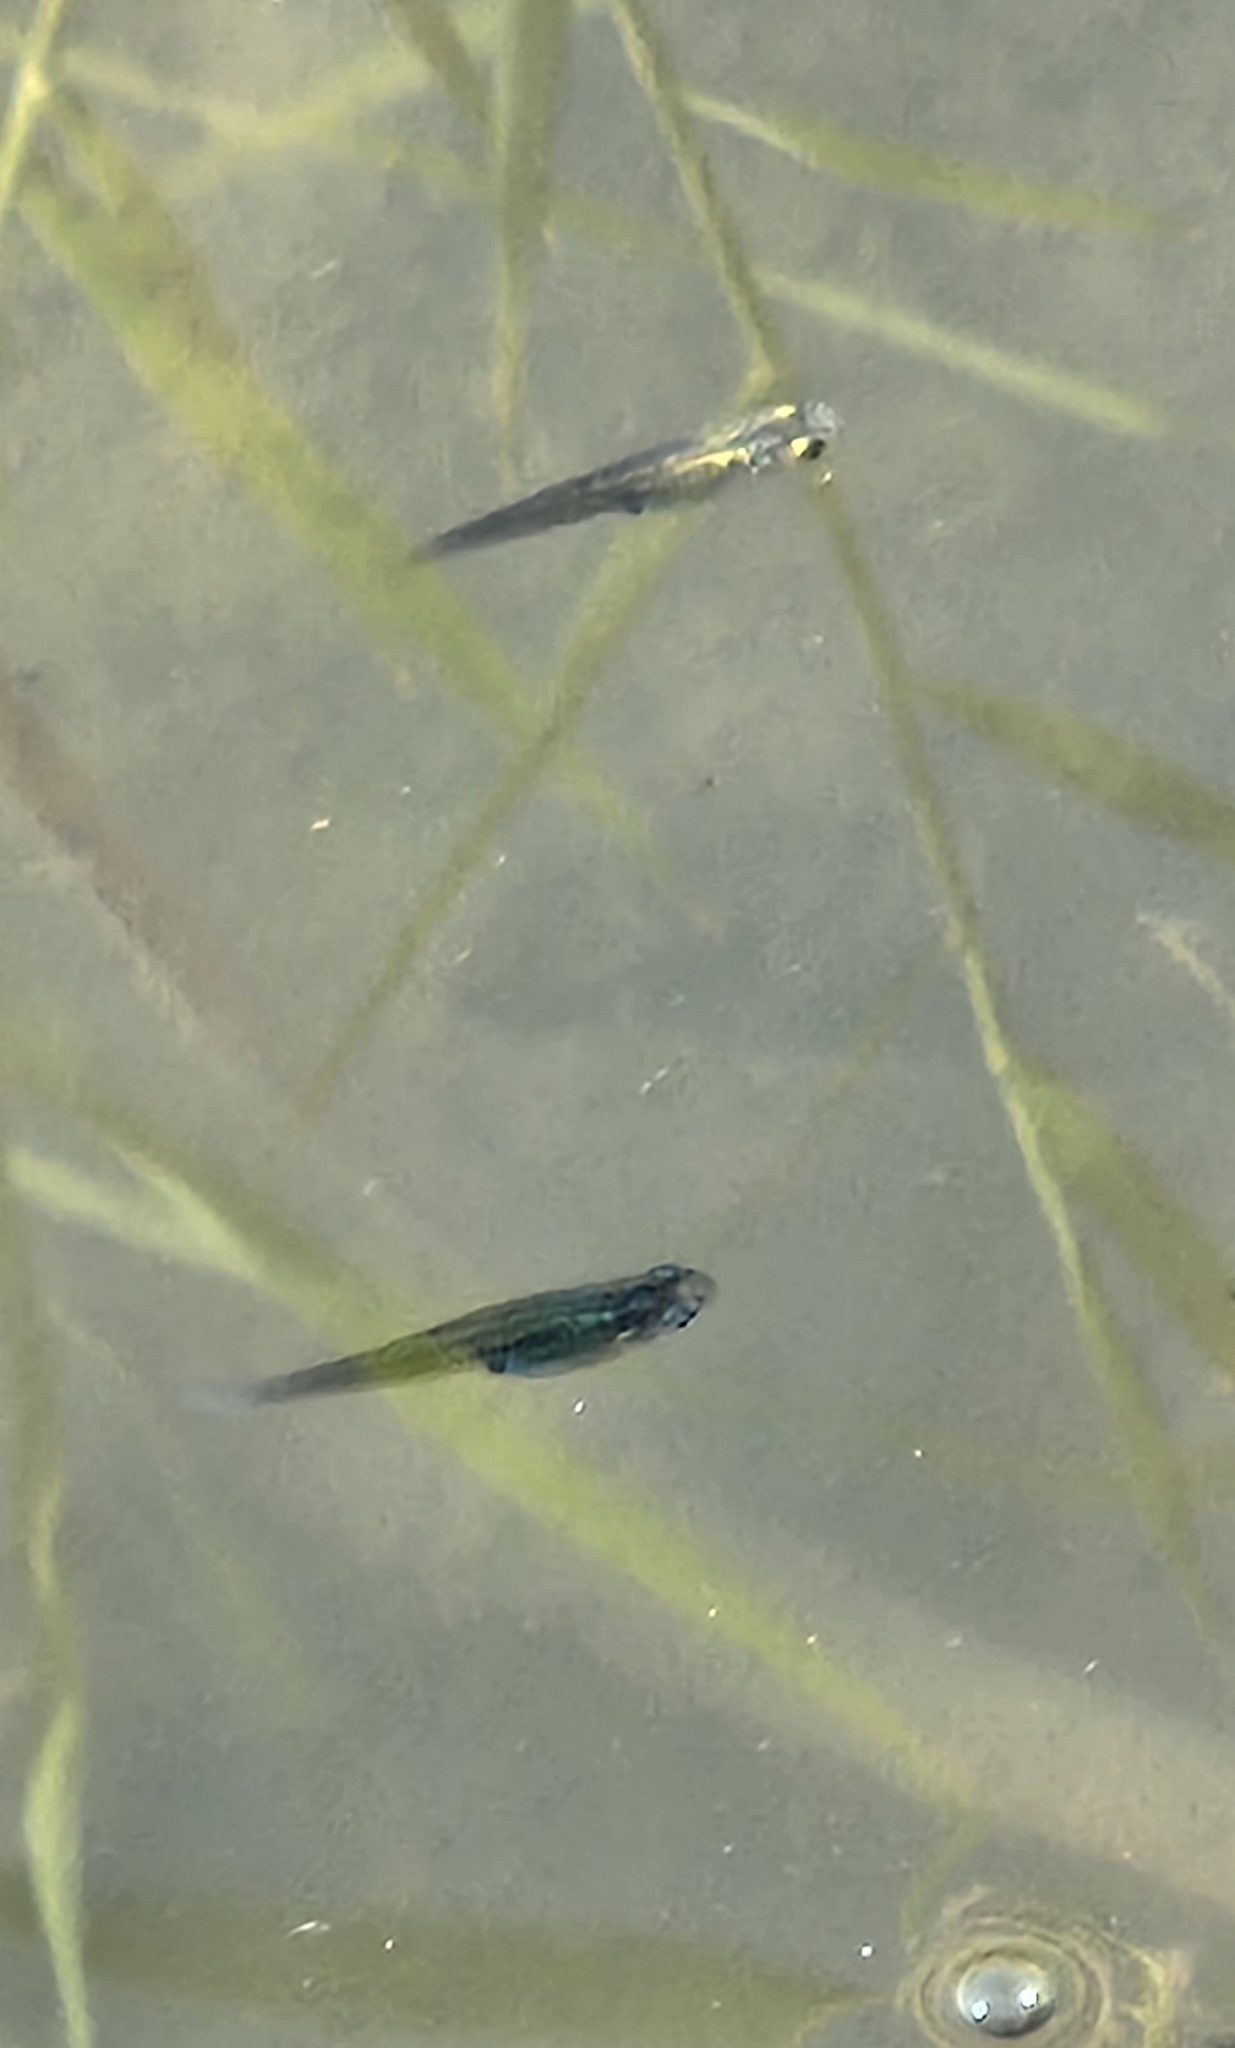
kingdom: Animalia
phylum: Chordata
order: Cyprinodontiformes
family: Poeciliidae
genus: Gambusia
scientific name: Gambusia gaigei
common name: Big bend gambusia
